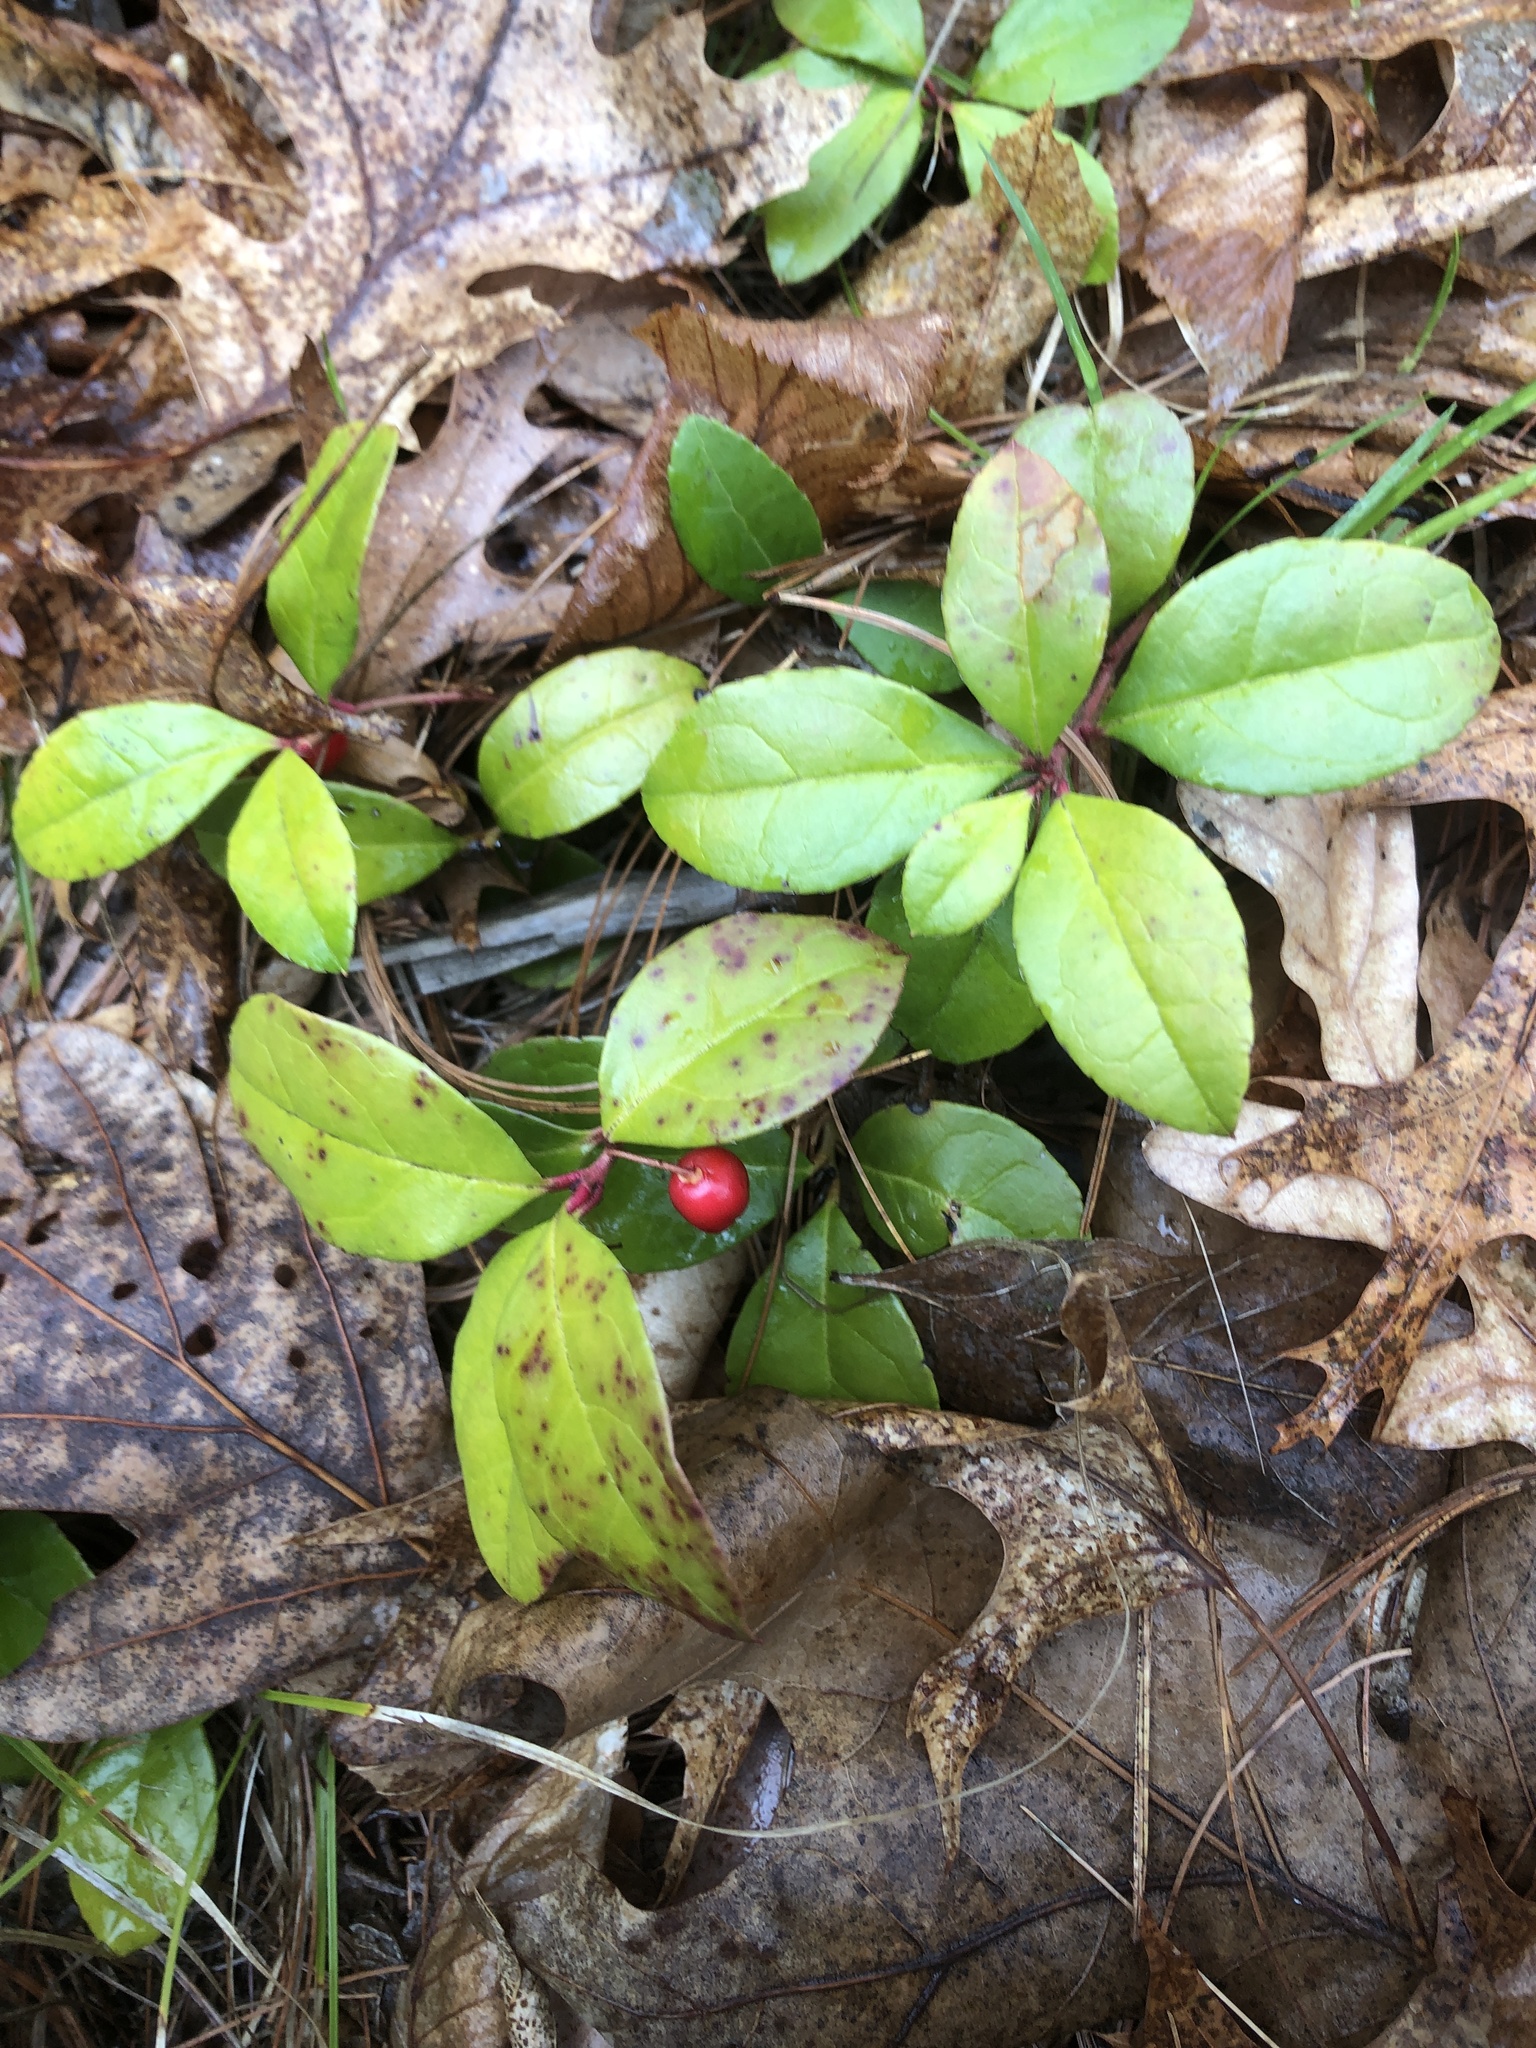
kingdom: Plantae
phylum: Tracheophyta
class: Magnoliopsida
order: Ericales
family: Ericaceae
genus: Gaultheria
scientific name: Gaultheria procumbens
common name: Checkerberry
